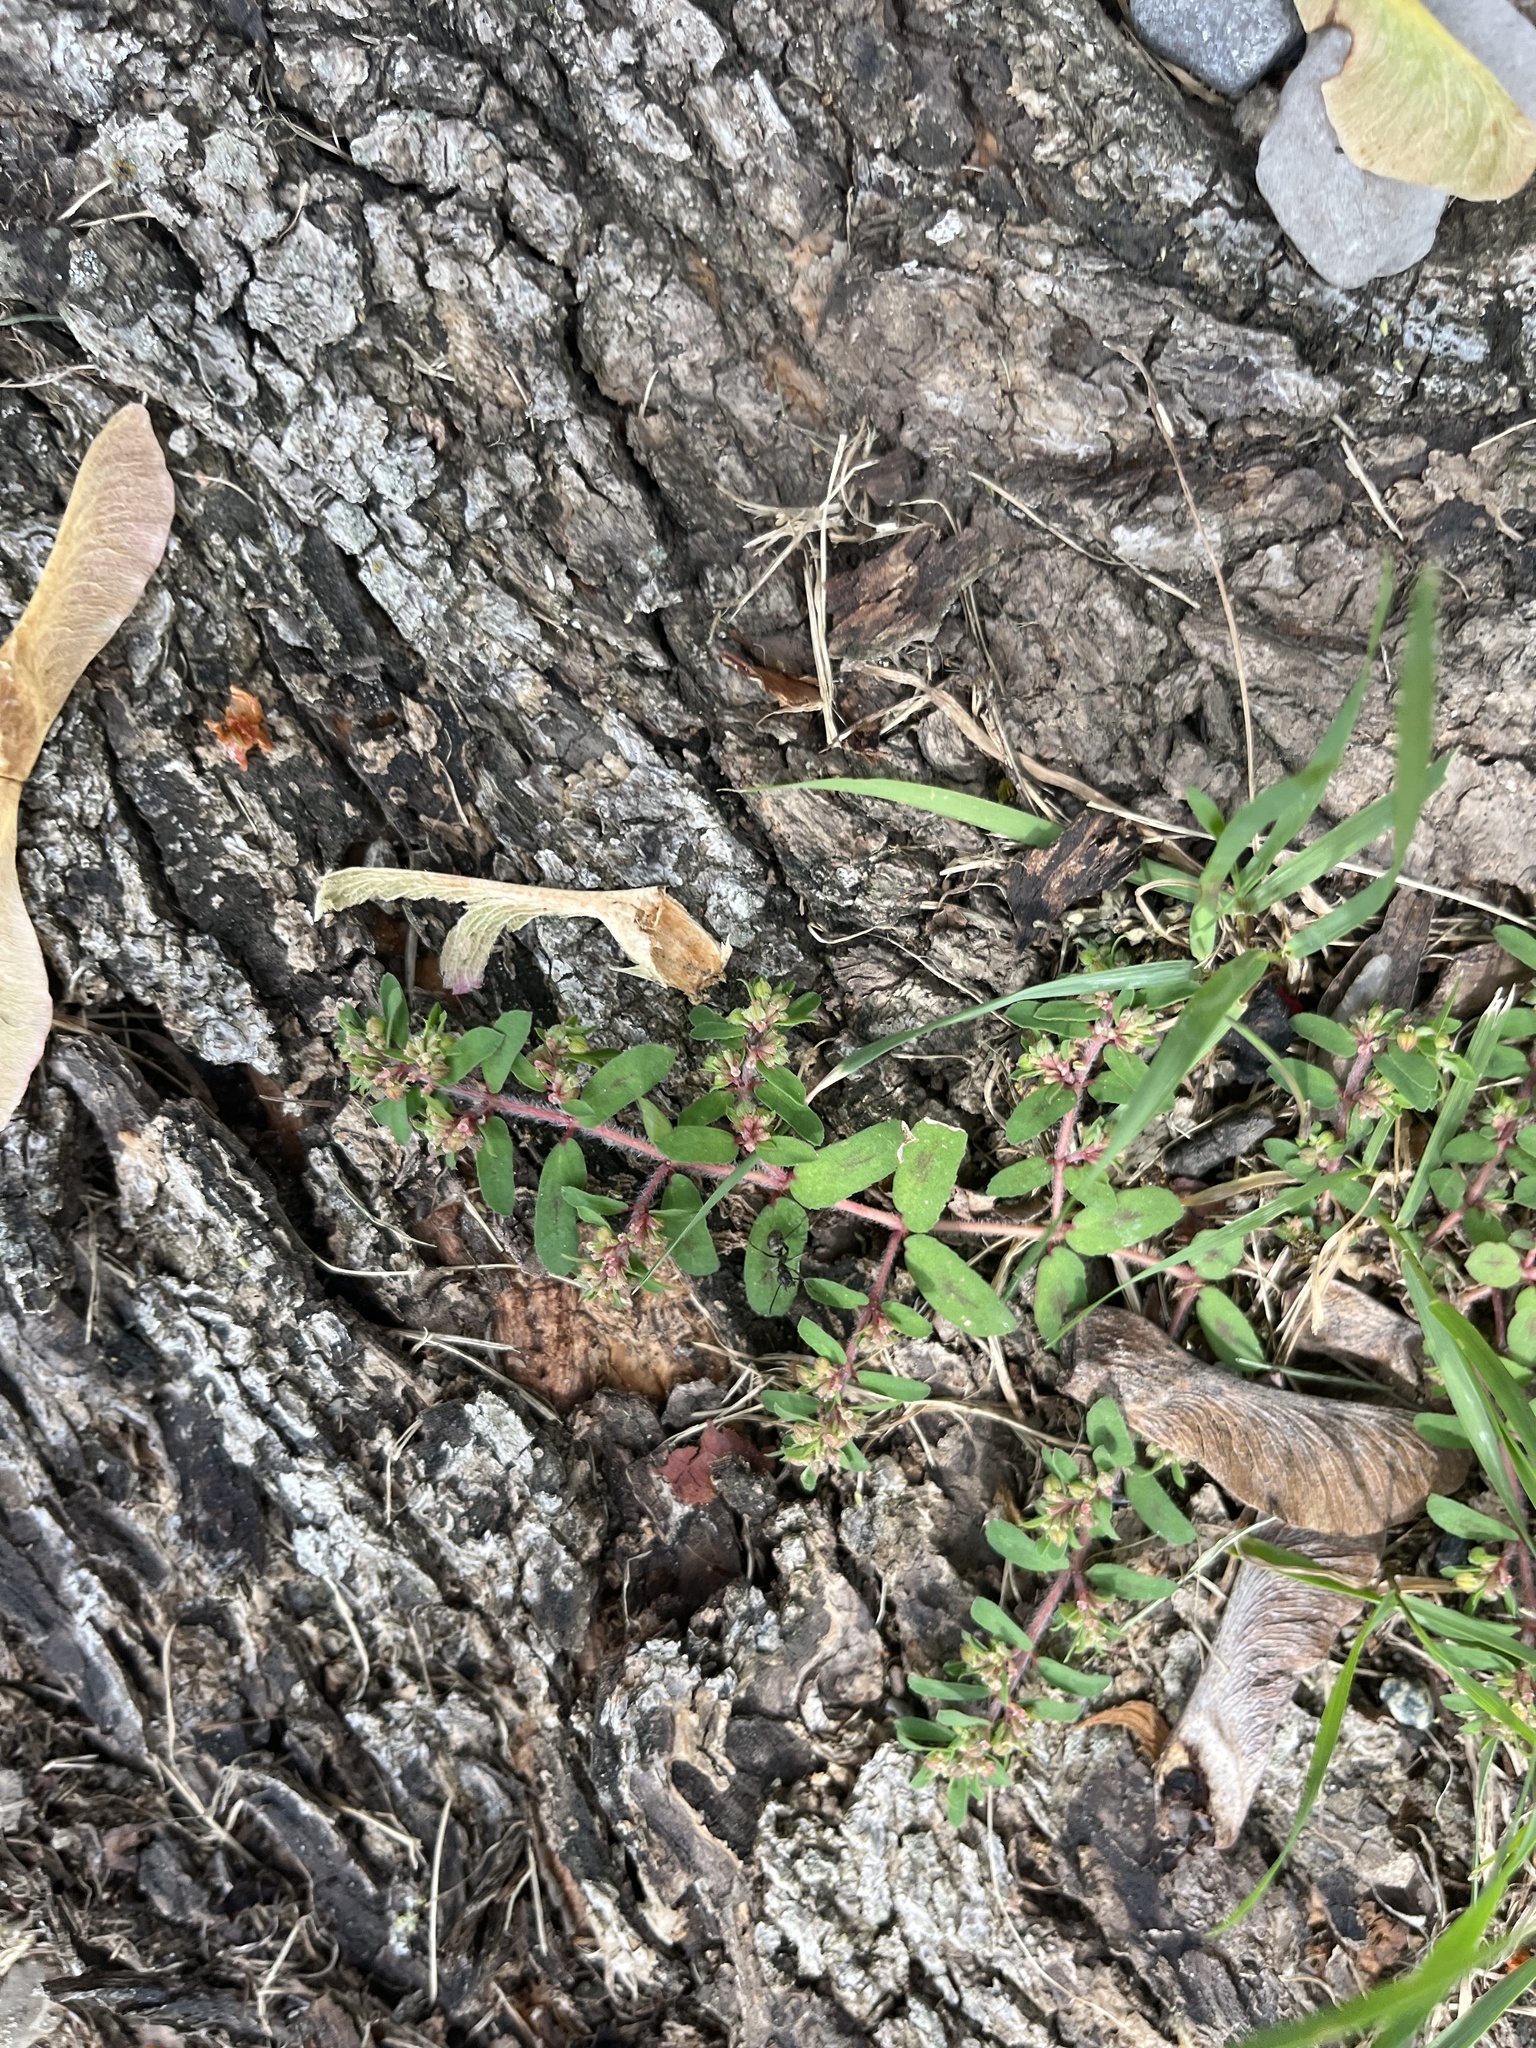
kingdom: Plantae
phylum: Tracheophyta
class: Magnoliopsida
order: Malpighiales
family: Euphorbiaceae
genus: Euphorbia
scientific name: Euphorbia maculata
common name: Spotted spurge
